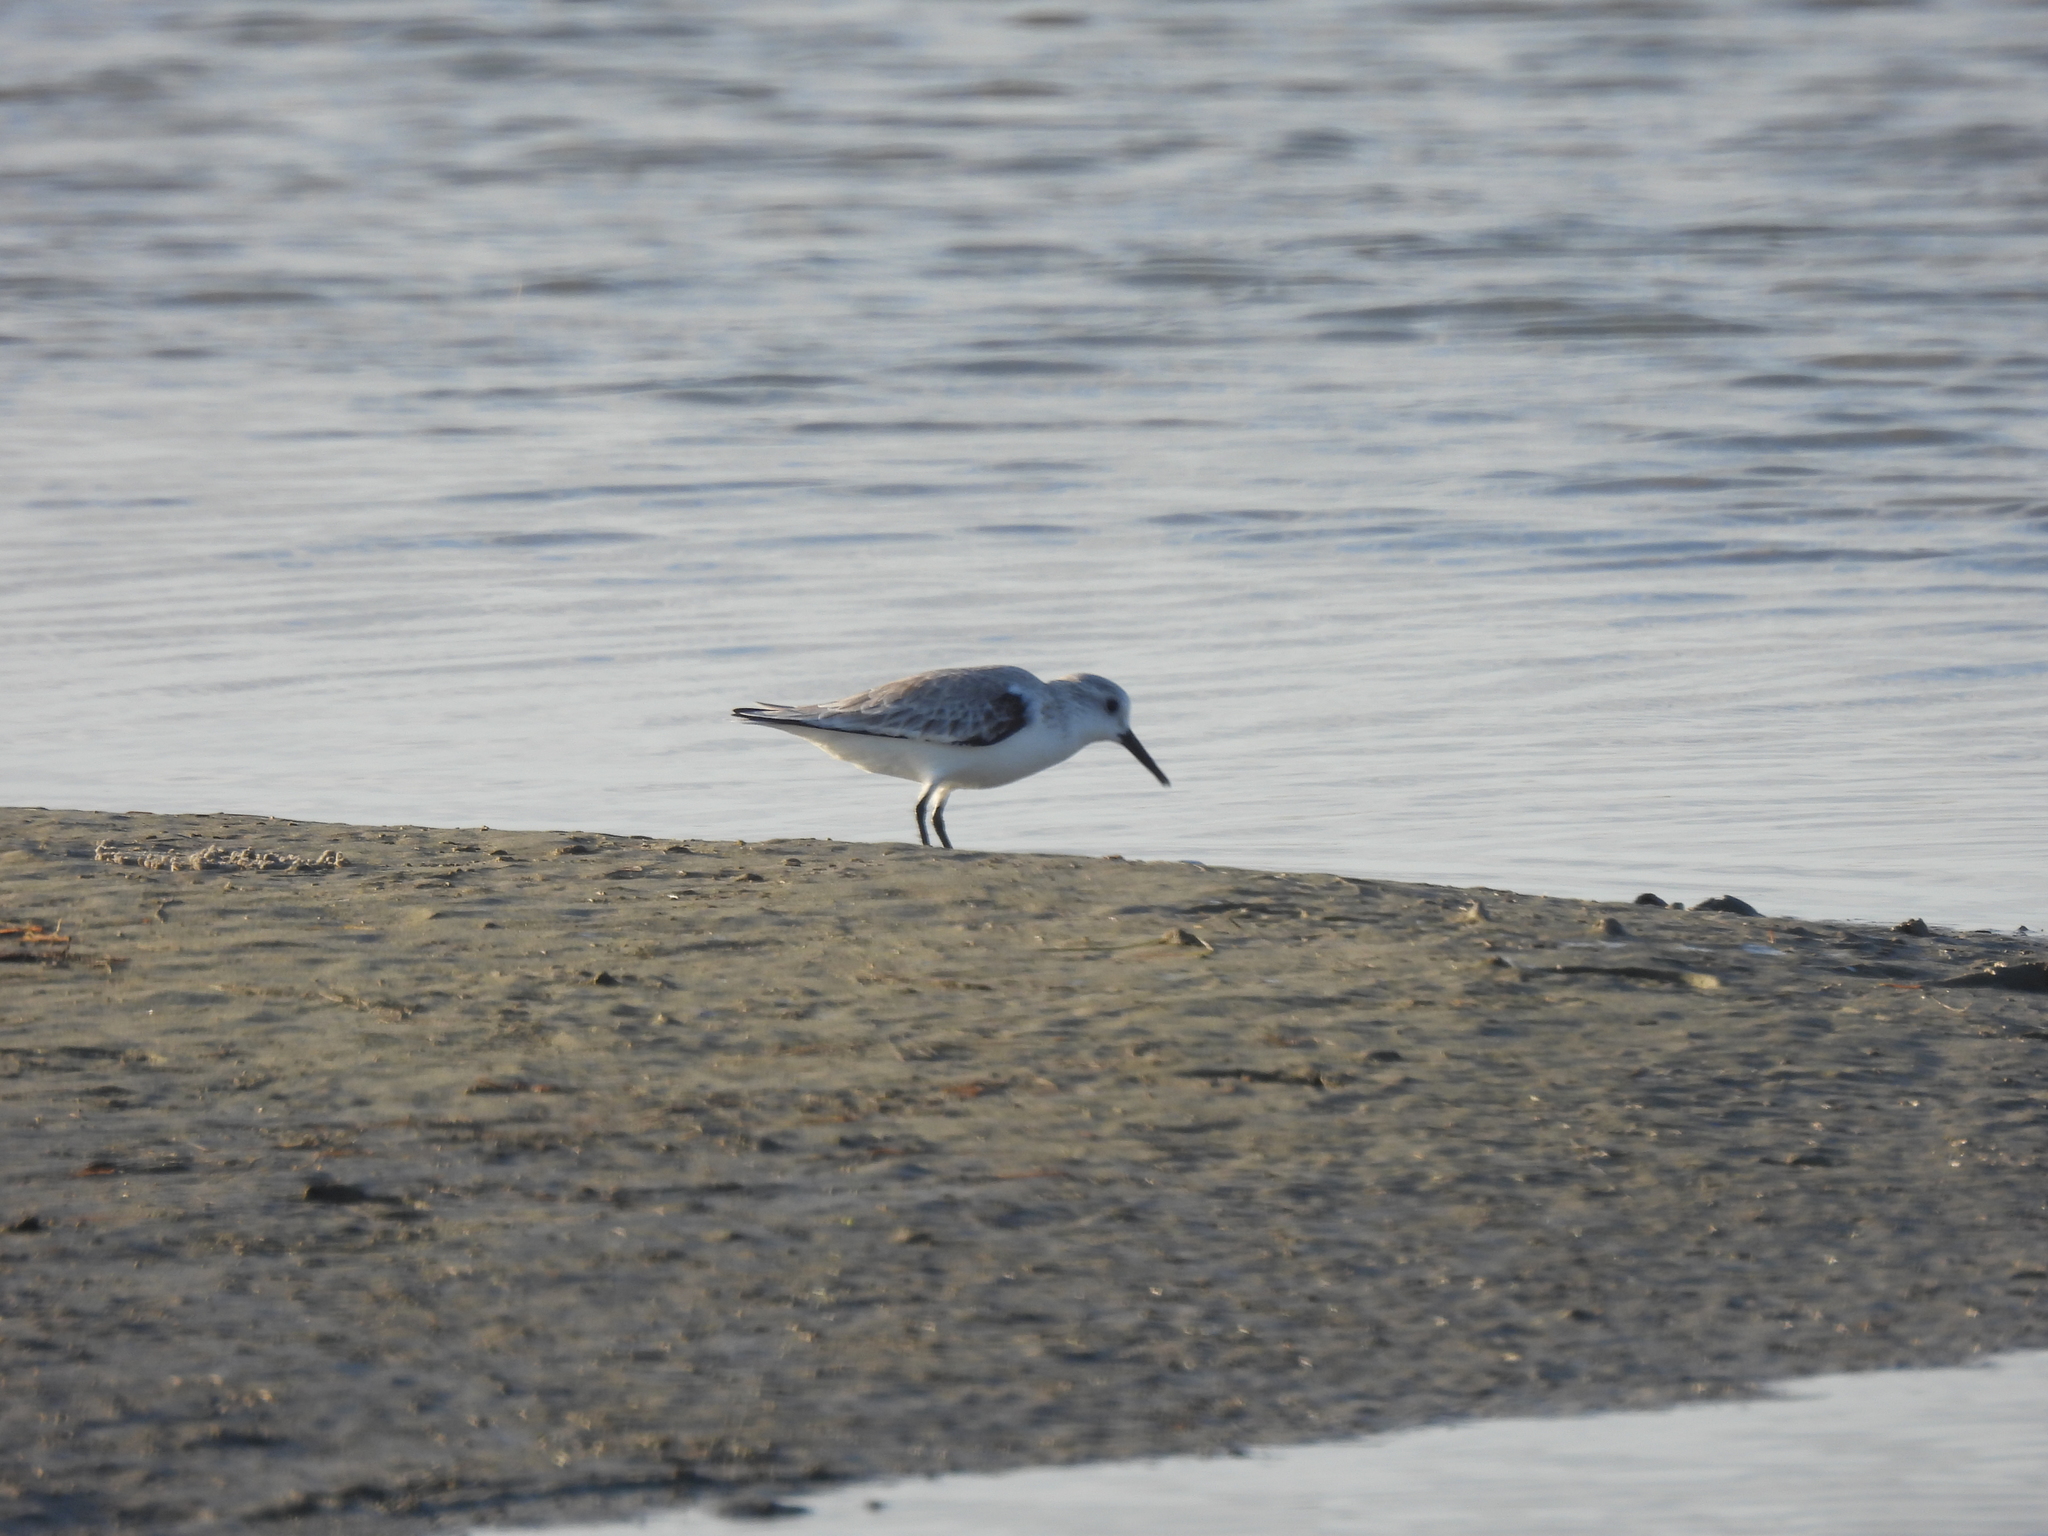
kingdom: Animalia
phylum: Chordata
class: Aves
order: Charadriiformes
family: Scolopacidae
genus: Calidris
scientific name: Calidris alba
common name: Sanderling
